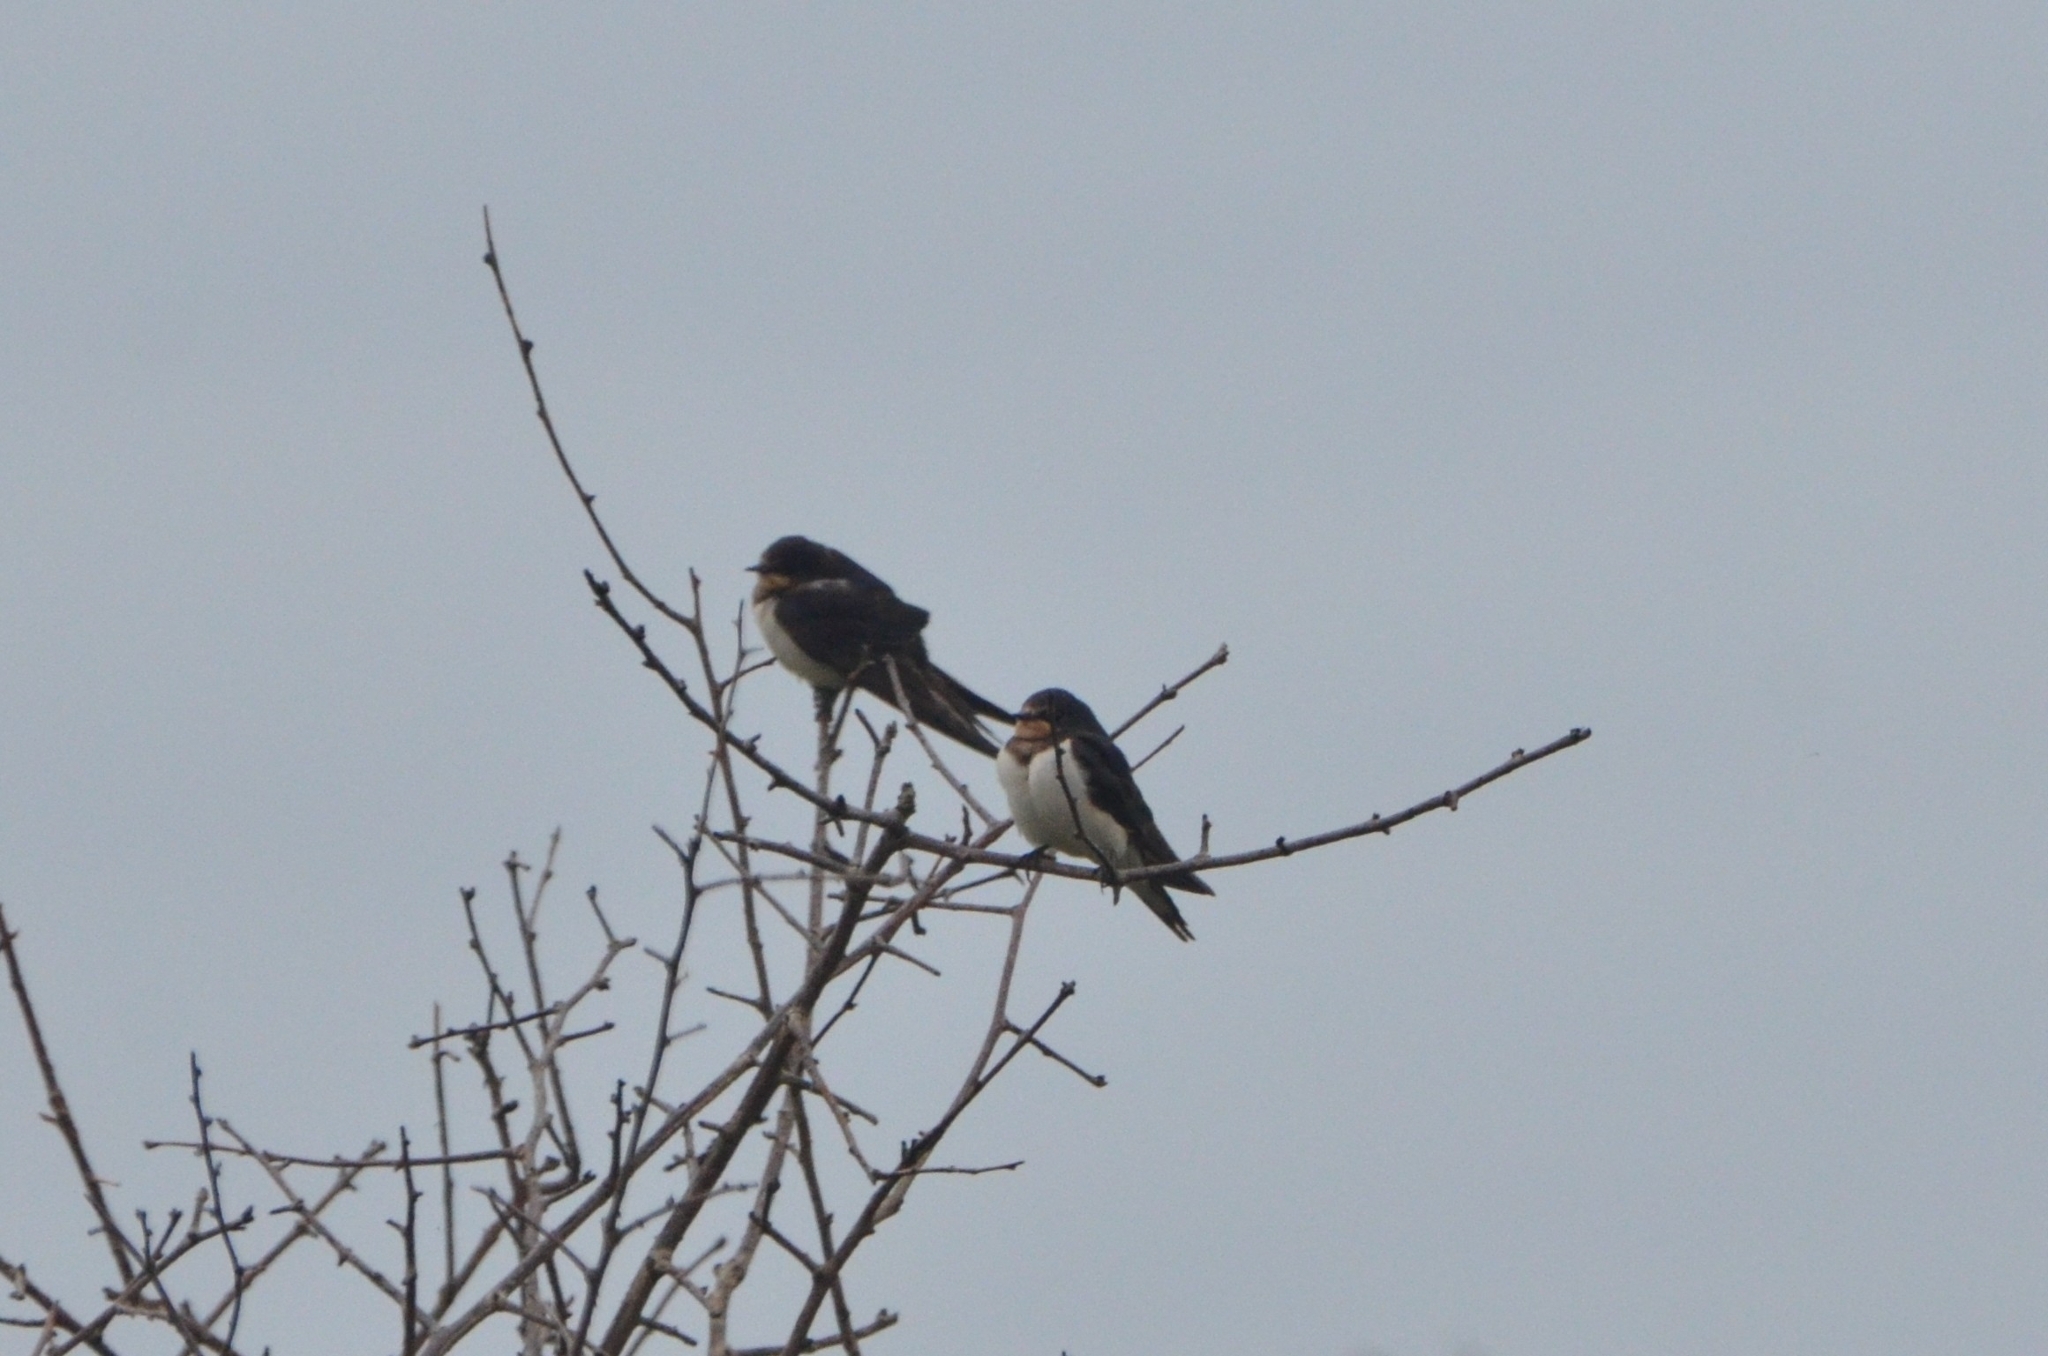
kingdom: Animalia
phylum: Chordata
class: Aves
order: Passeriformes
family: Hirundinidae
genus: Hirundo
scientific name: Hirundo rustica
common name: Barn swallow
